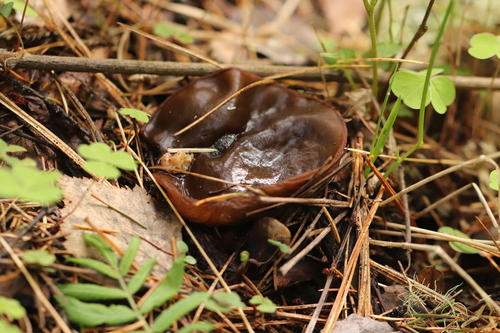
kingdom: Fungi
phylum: Ascomycota
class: Pezizomycetes
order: Pezizales
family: Sarcosomataceae
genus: Sarcosoma
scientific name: Sarcosoma globosum
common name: Charred-pancake cup
